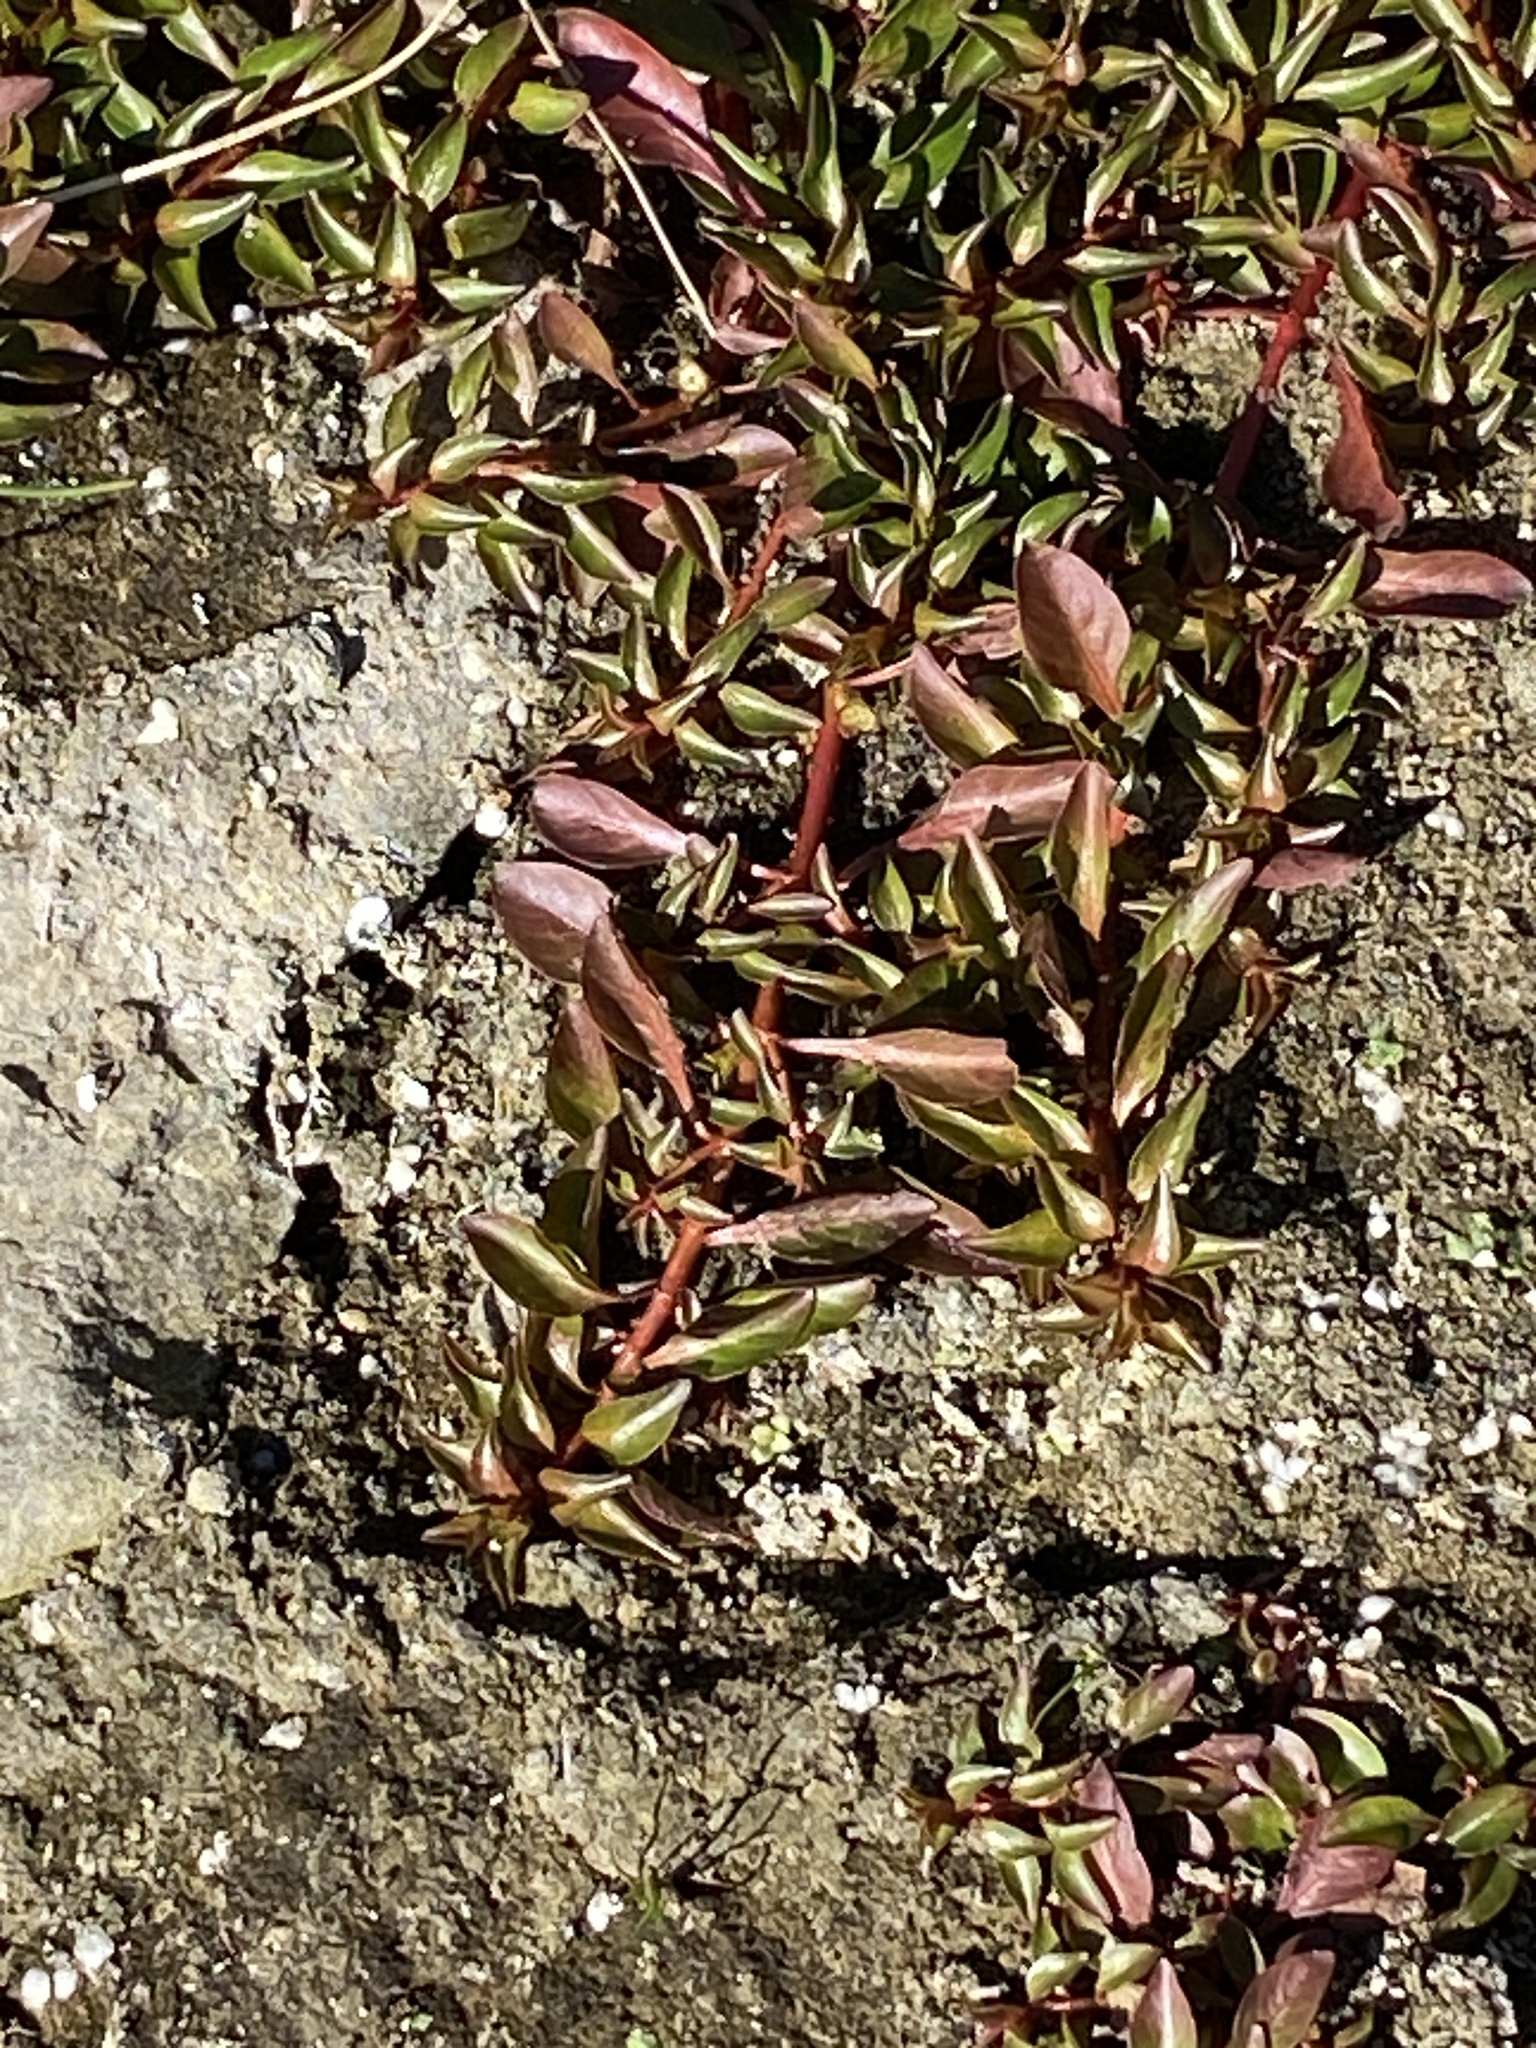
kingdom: Plantae
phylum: Tracheophyta
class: Magnoliopsida
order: Myrtales
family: Onagraceae
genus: Ludwigia
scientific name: Ludwigia palustris
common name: Hampshire-purslane
